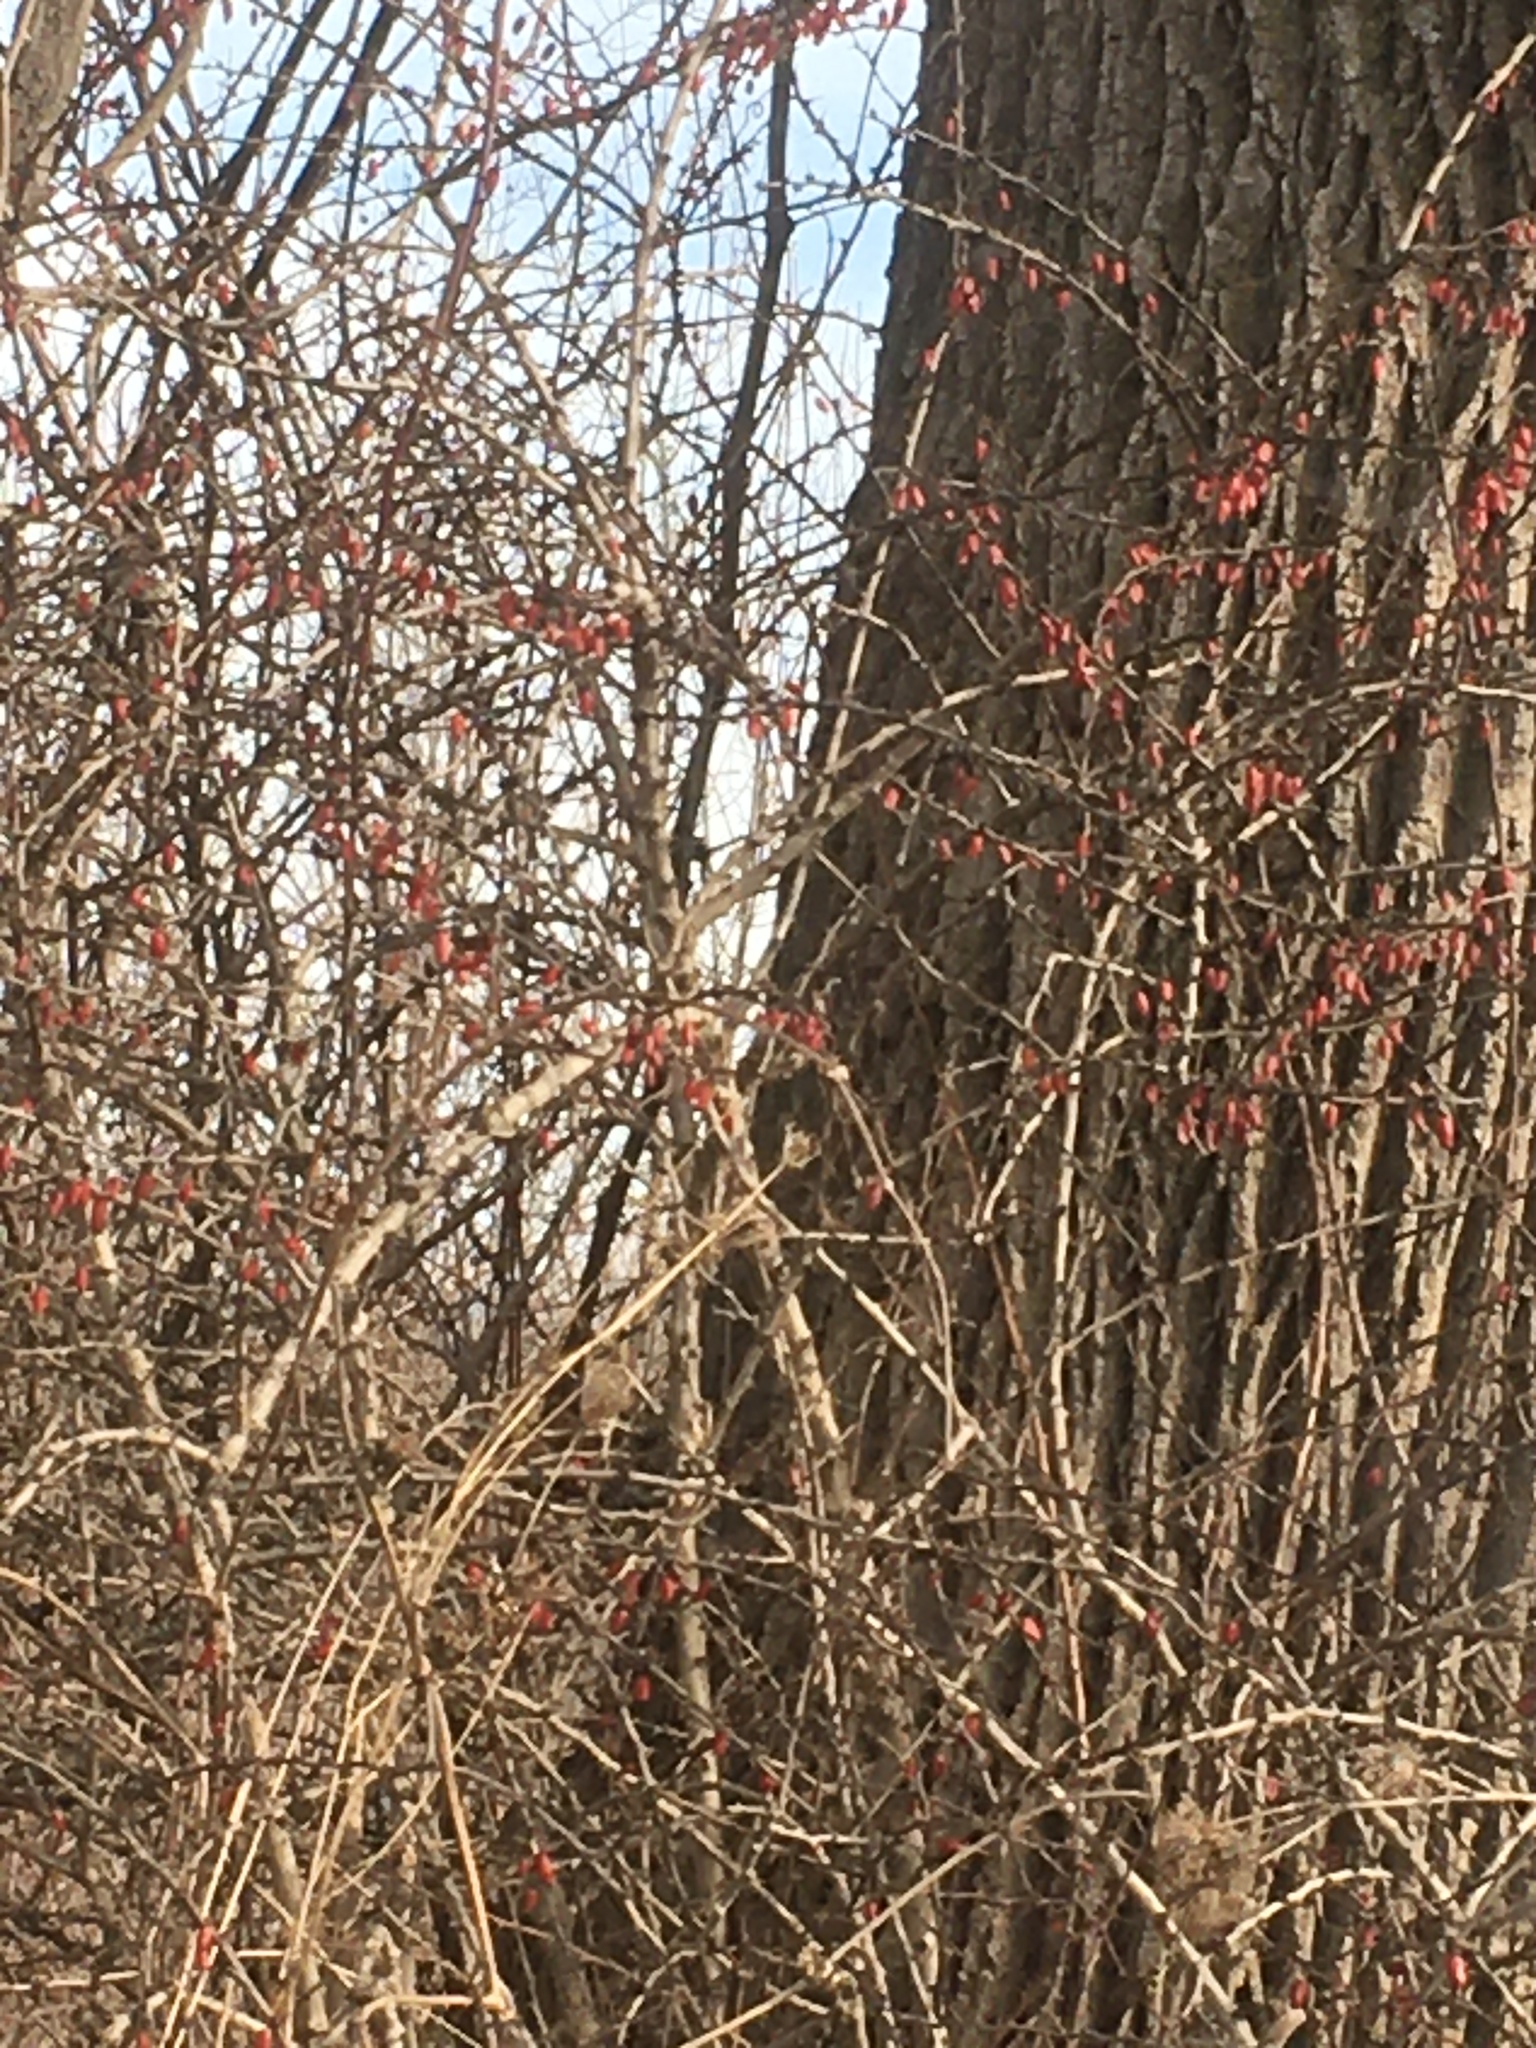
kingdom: Plantae
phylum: Tracheophyta
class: Magnoliopsida
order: Ranunculales
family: Berberidaceae
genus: Berberis
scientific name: Berberis thunbergii
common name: Japanese barberry
